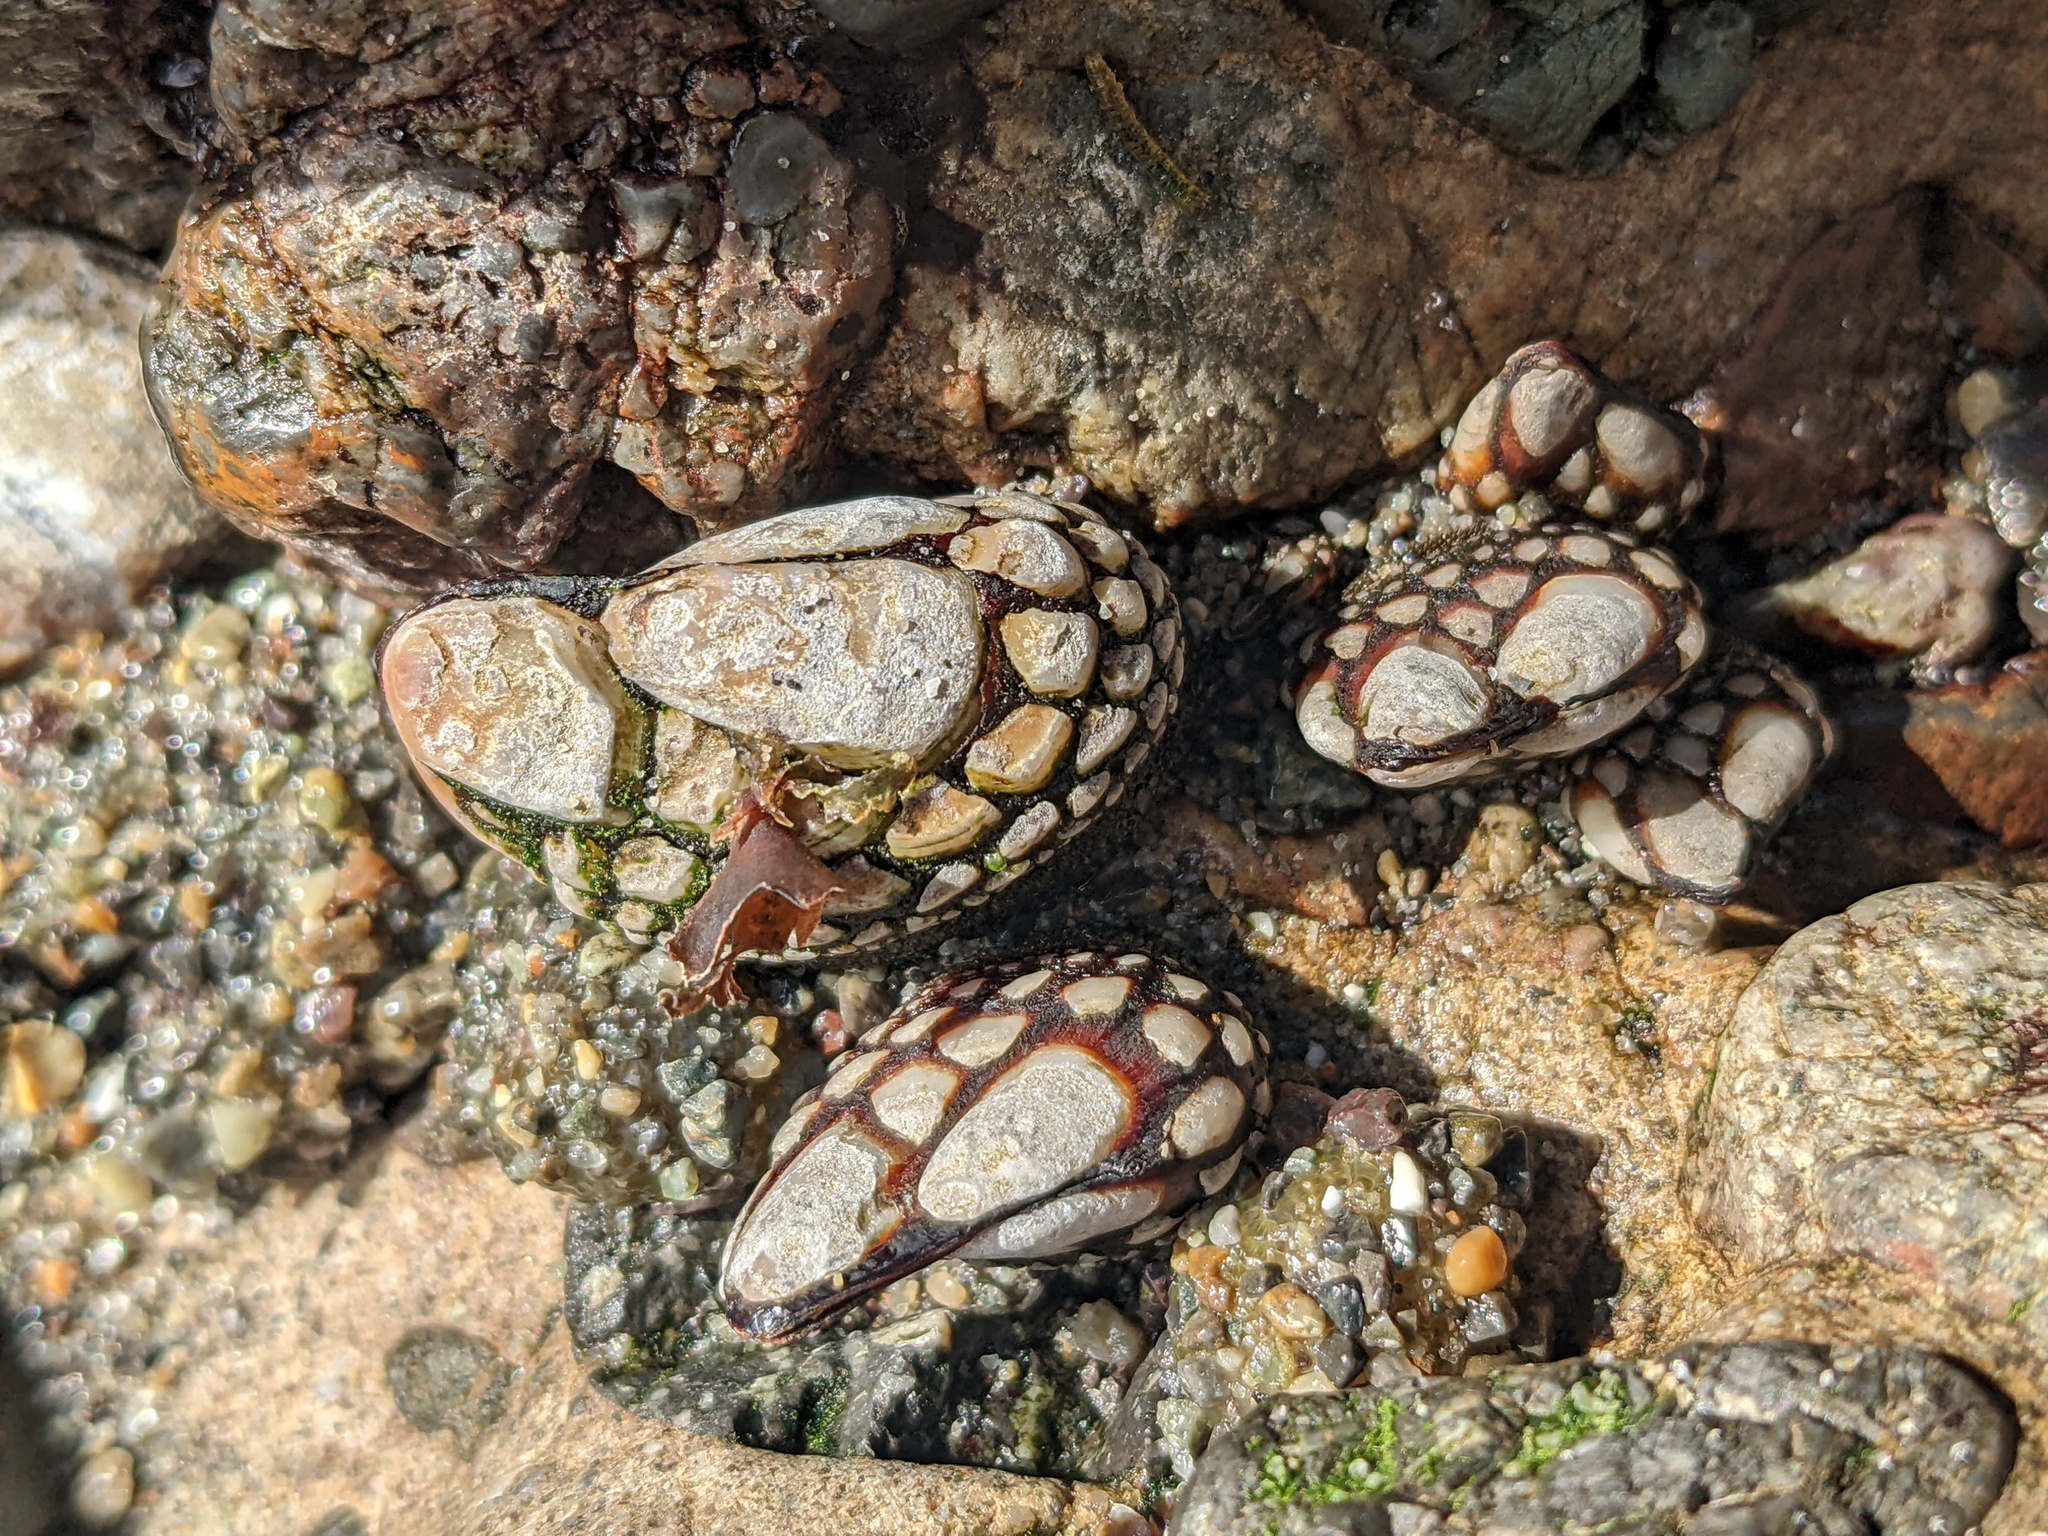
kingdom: Animalia
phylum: Arthropoda
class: Maxillopoda
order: Pedunculata
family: Pollicipedidae
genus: Pollicipes
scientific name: Pollicipes polymerus
